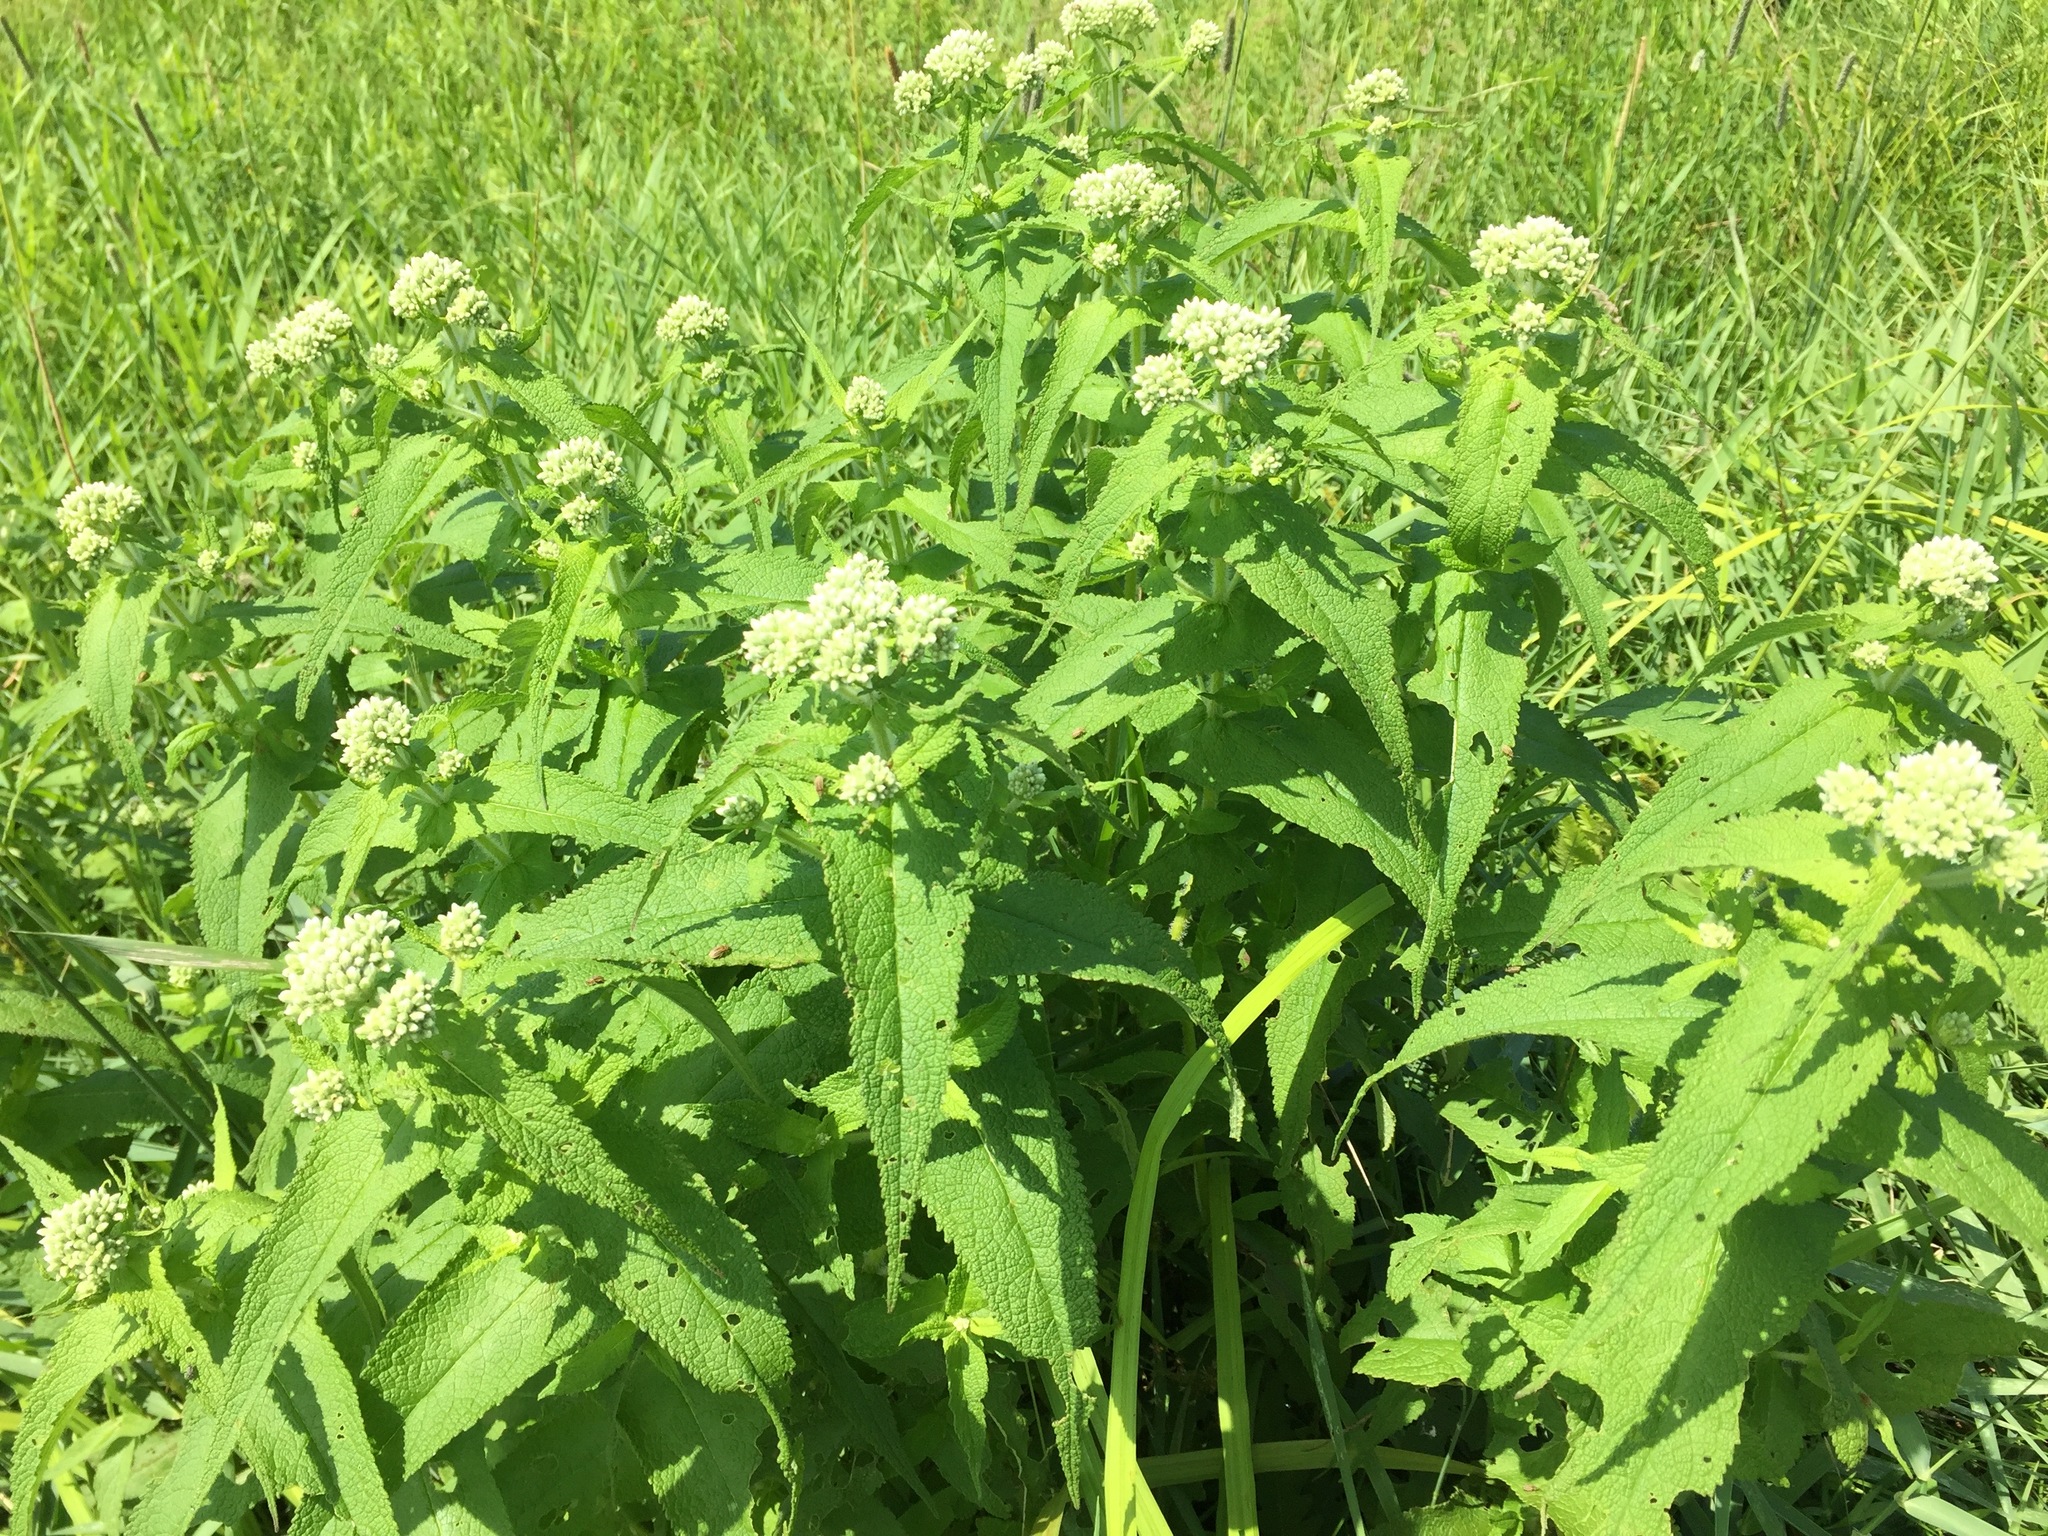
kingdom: Plantae
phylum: Tracheophyta
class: Magnoliopsida
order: Asterales
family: Asteraceae
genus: Eupatorium
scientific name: Eupatorium perfoliatum
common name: Boneset
